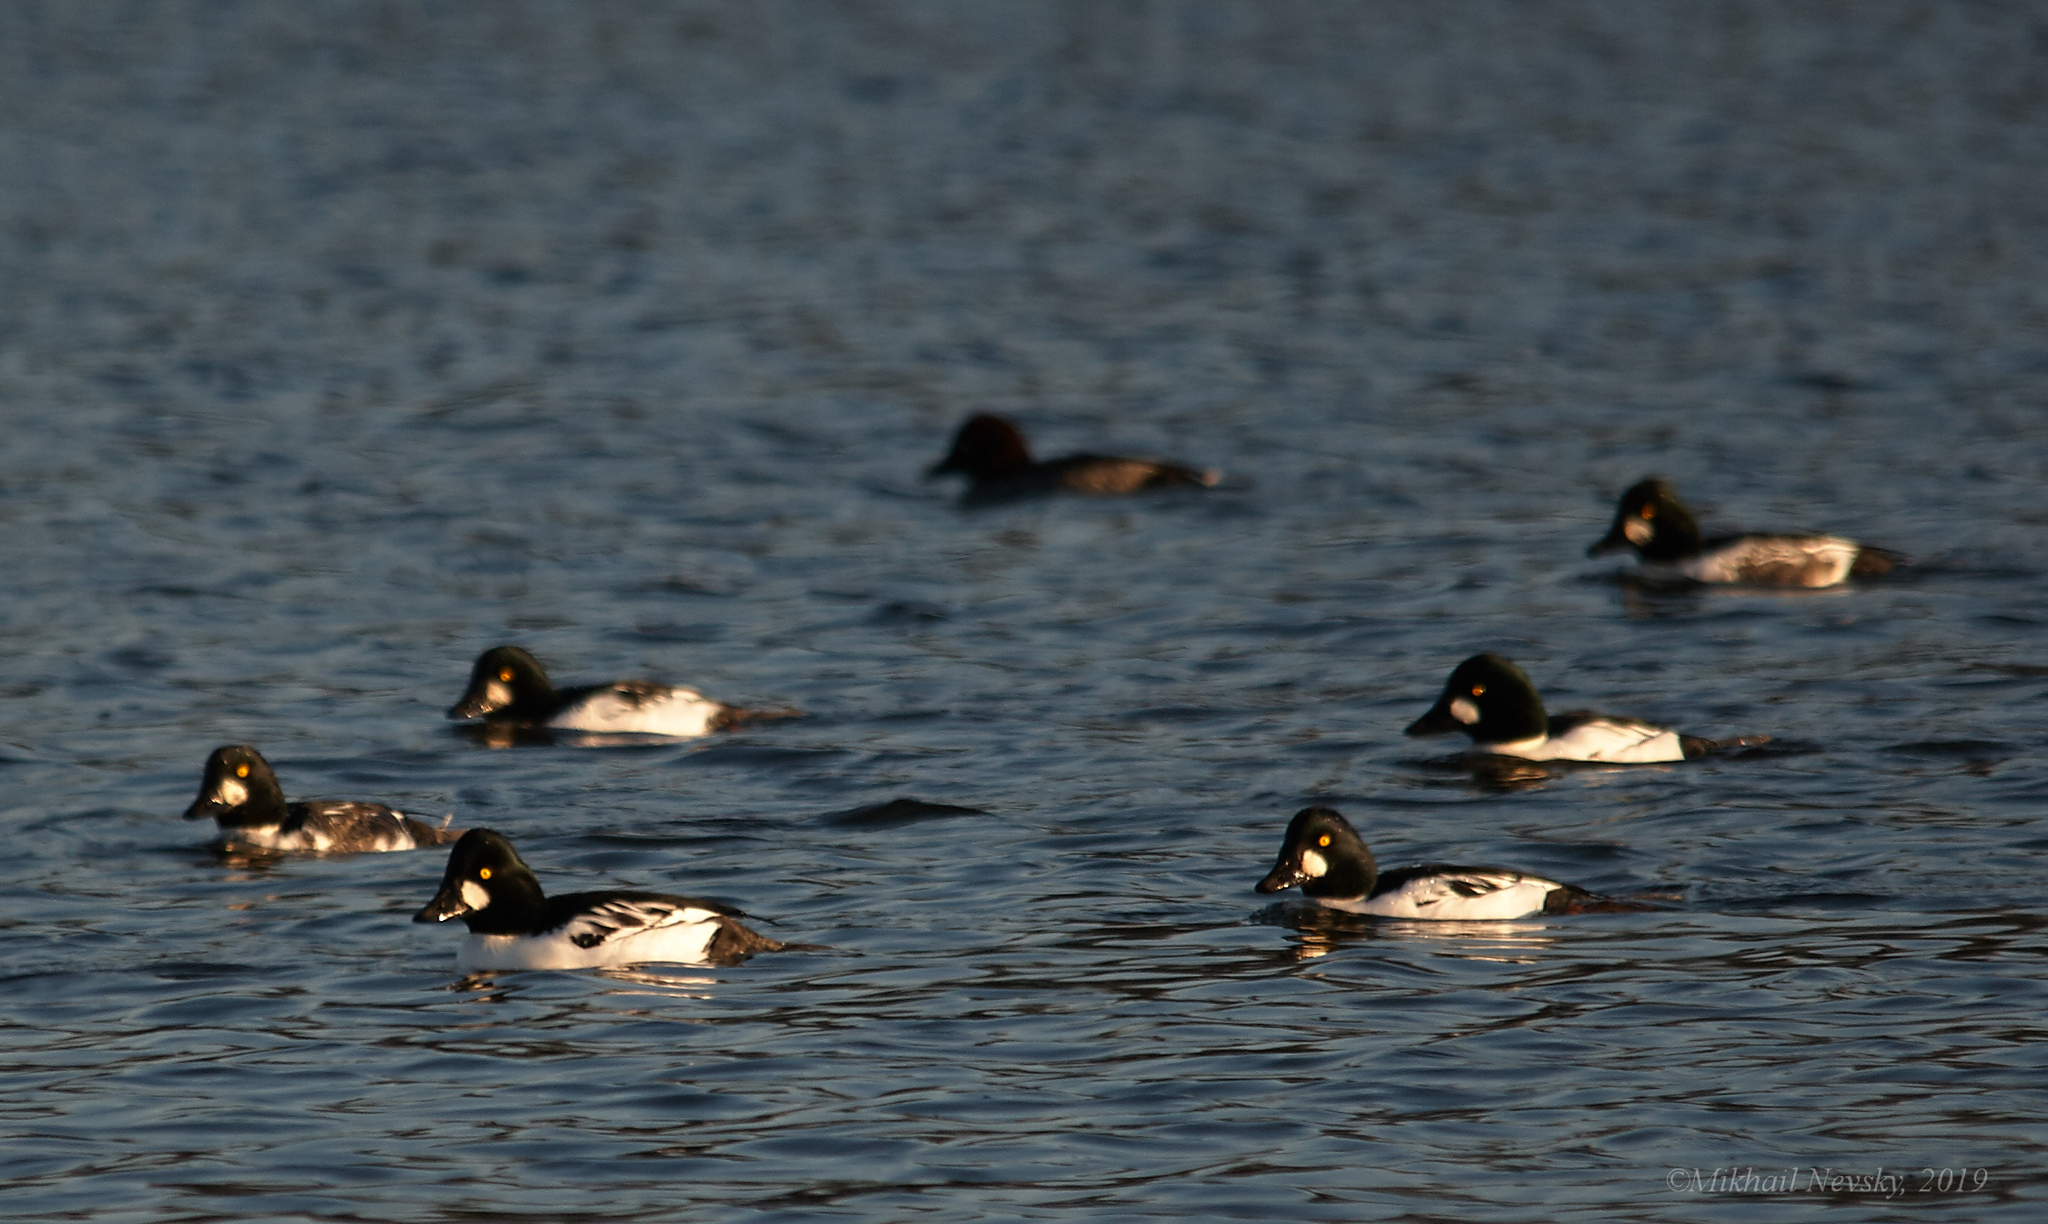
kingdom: Animalia
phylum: Chordata
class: Aves
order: Anseriformes
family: Anatidae
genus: Bucephala
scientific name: Bucephala clangula
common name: Common goldeneye
